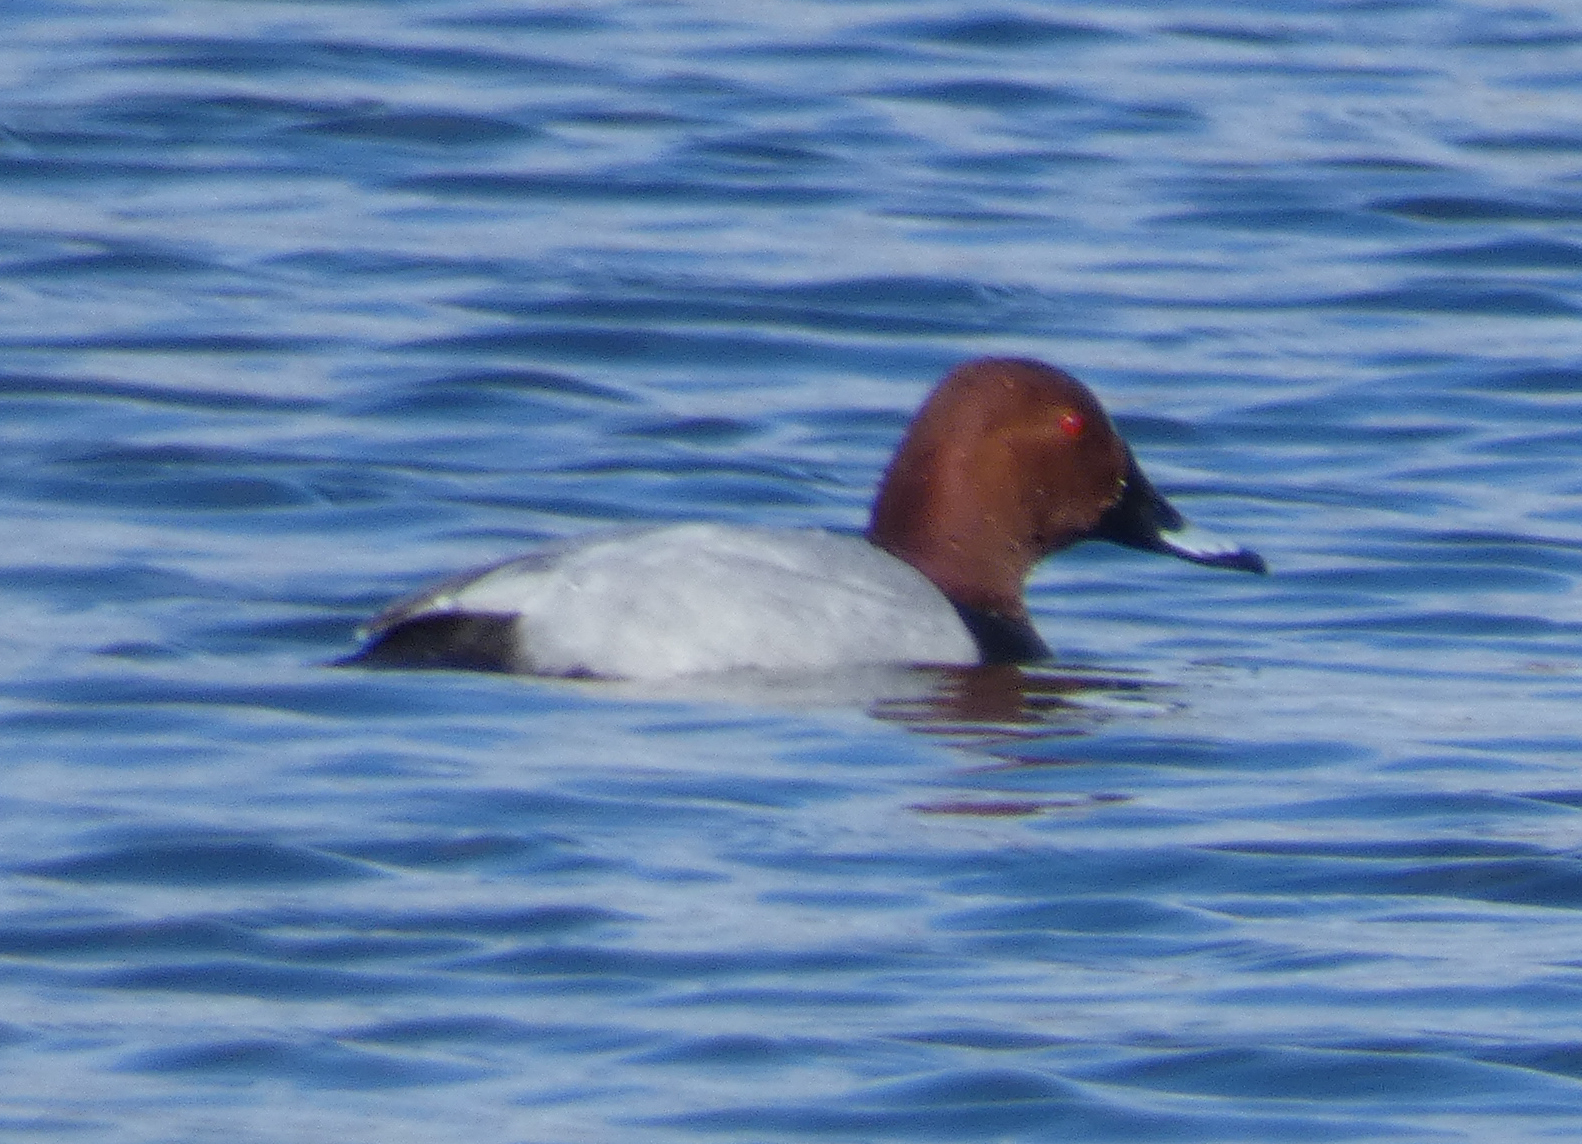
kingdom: Animalia
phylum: Chordata
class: Aves
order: Anseriformes
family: Anatidae
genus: Aythya
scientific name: Aythya ferina
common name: Common pochard
